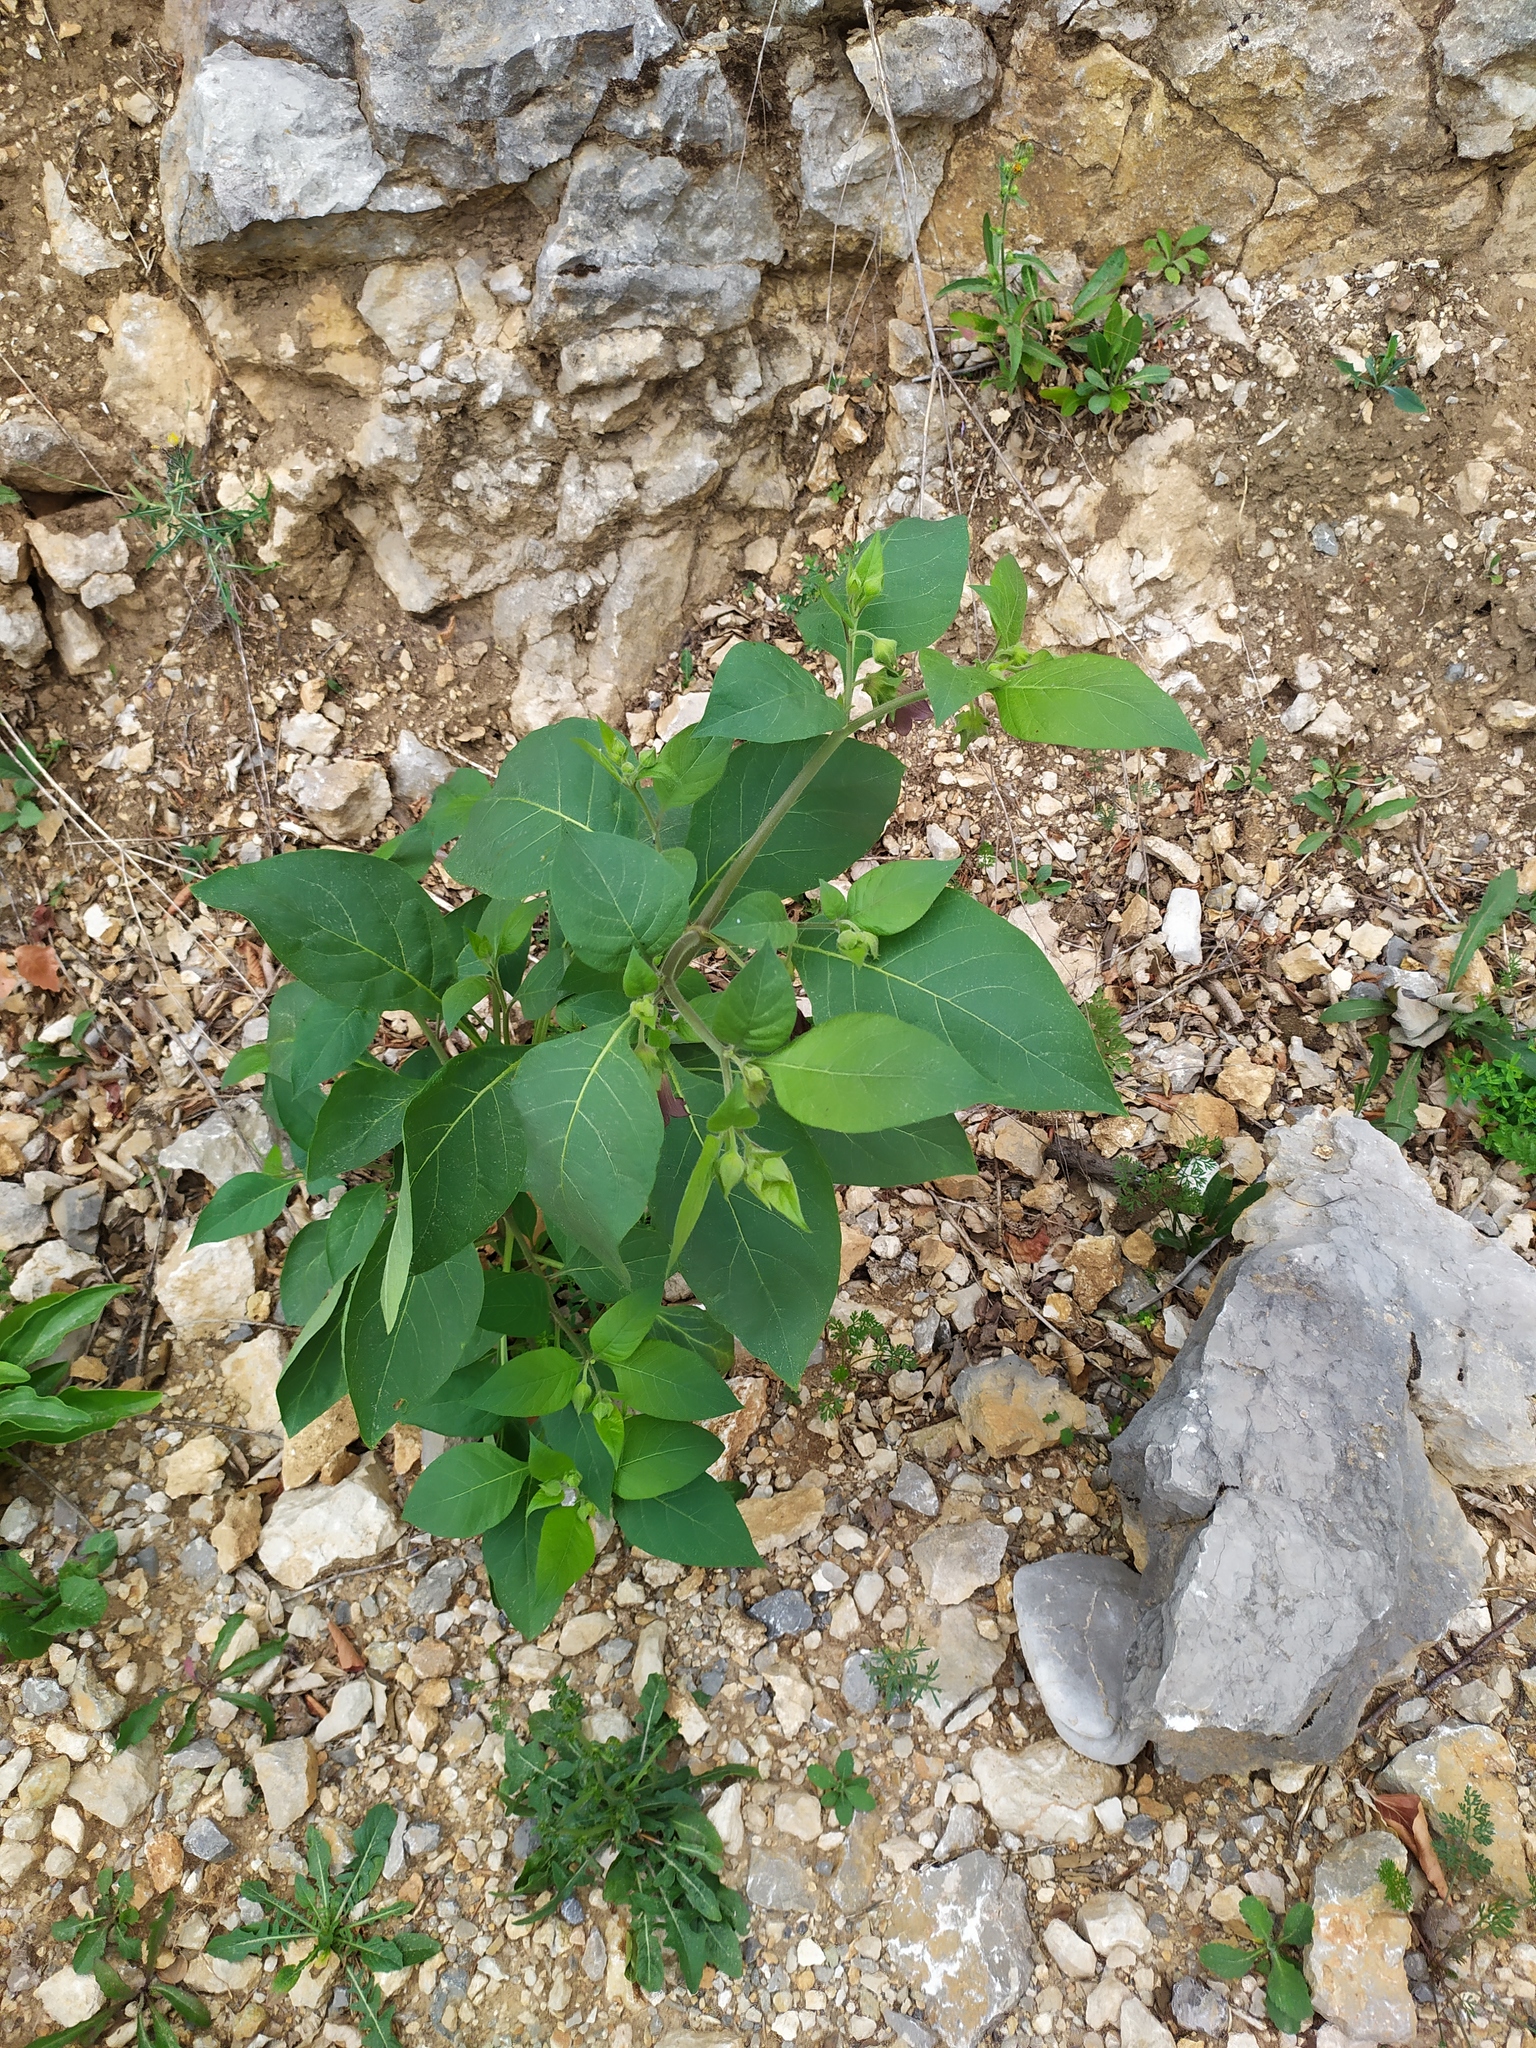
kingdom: Plantae
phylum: Tracheophyta
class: Magnoliopsida
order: Solanales
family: Solanaceae
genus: Atropa
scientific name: Atropa belladonna
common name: Deadly nightshade
